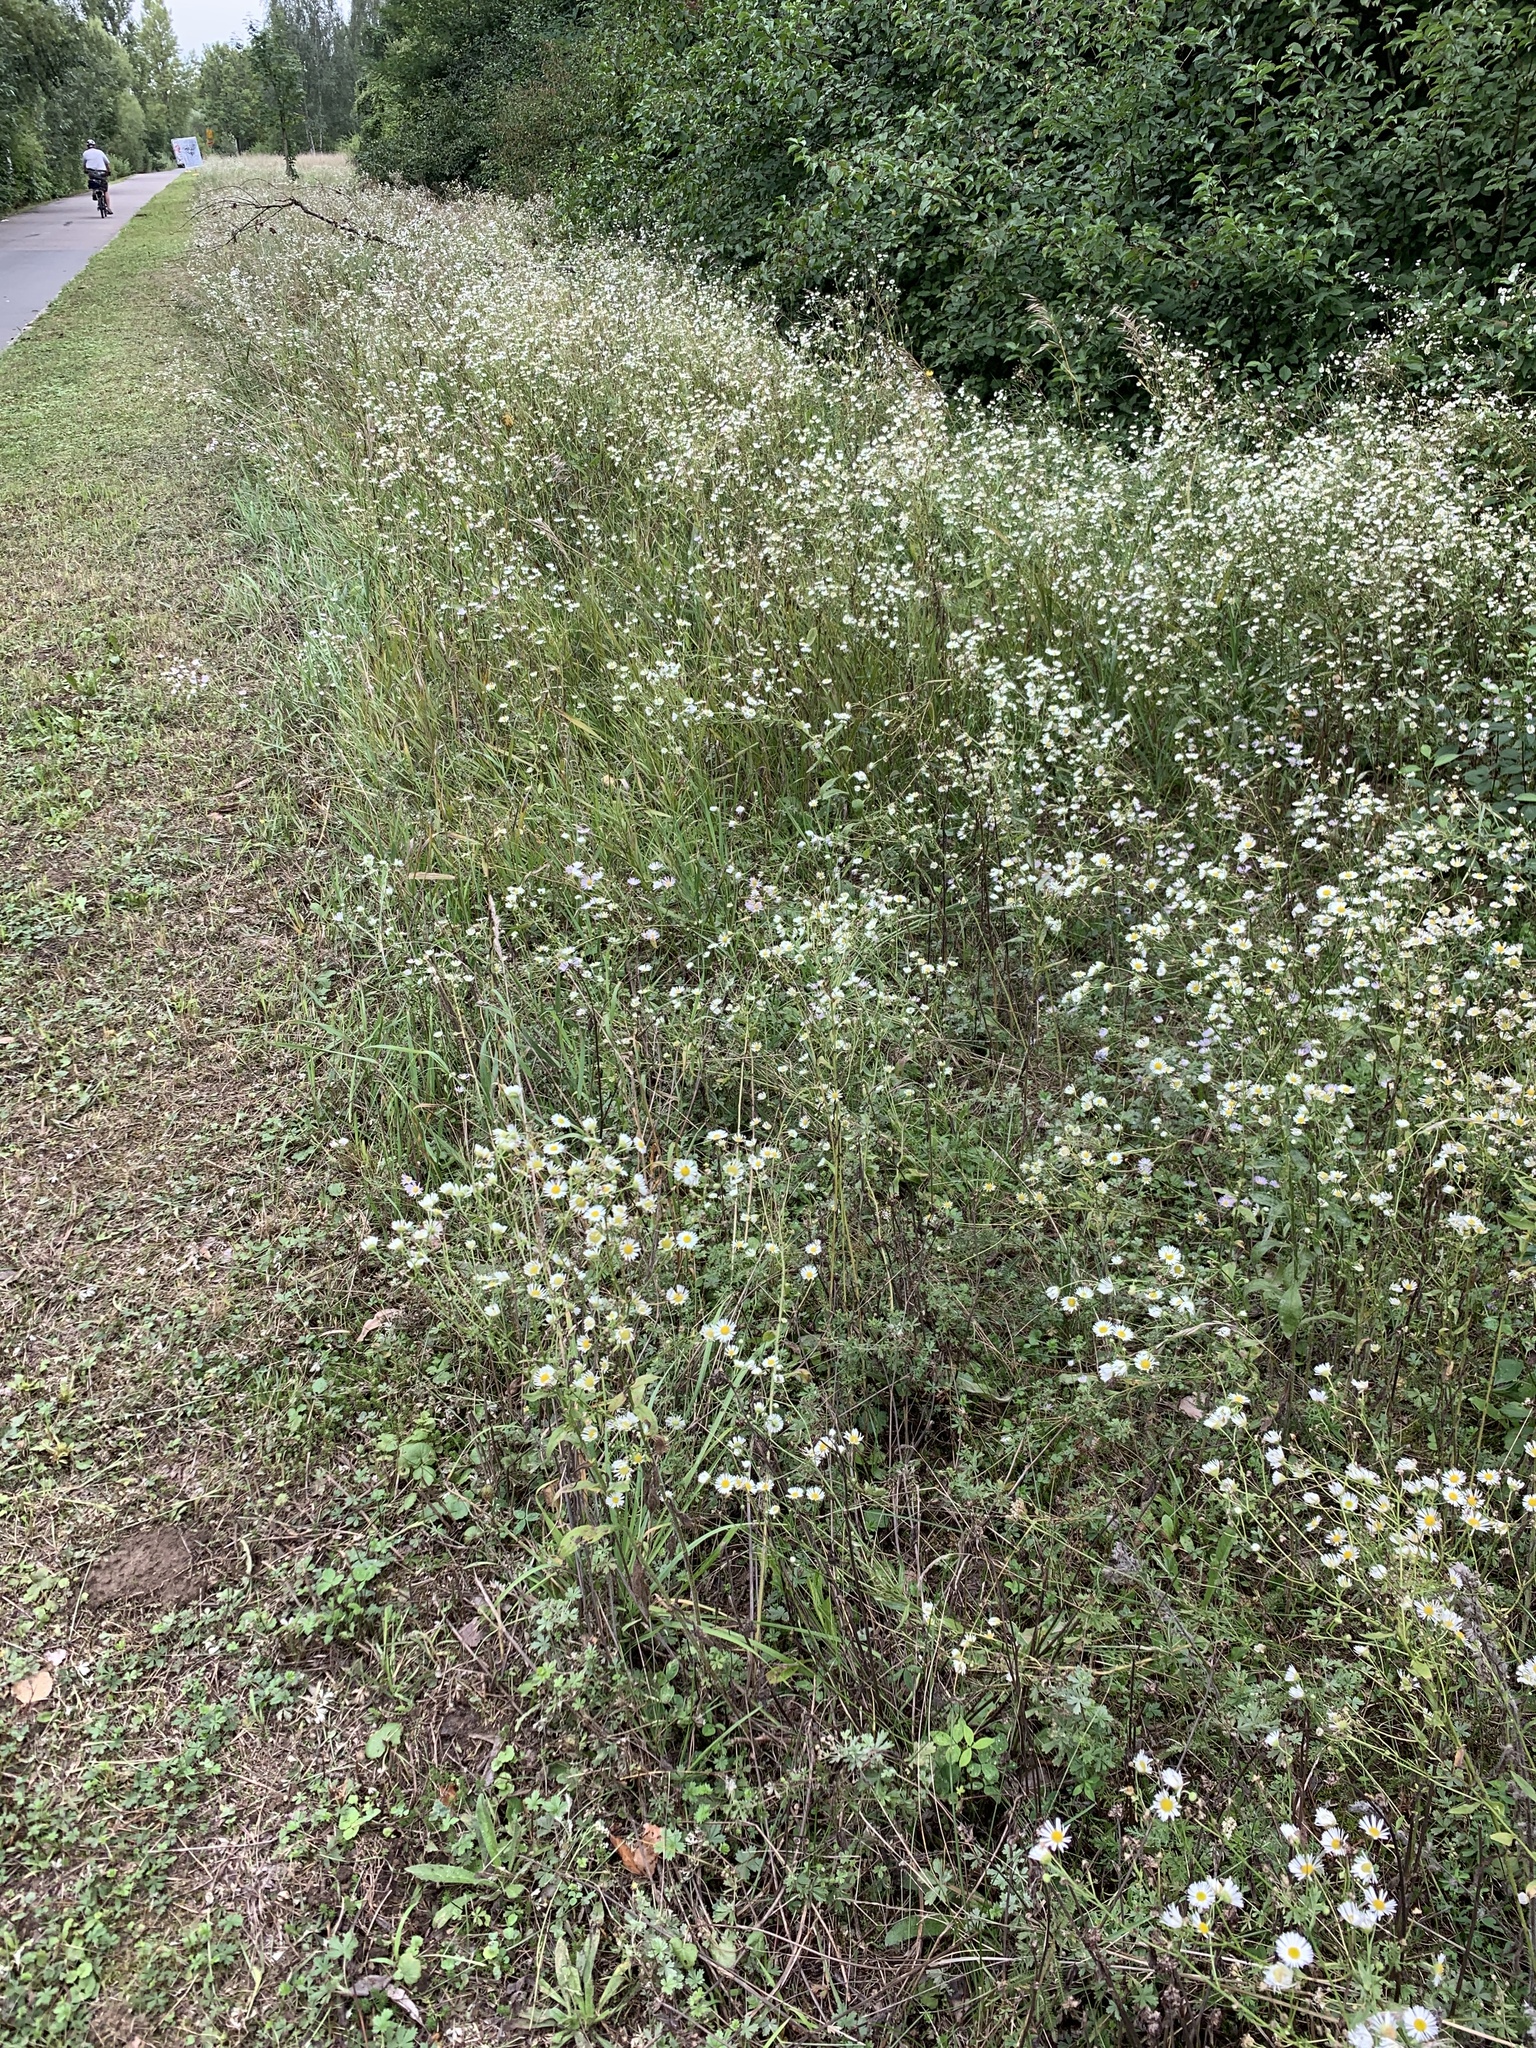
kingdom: Plantae
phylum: Tracheophyta
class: Magnoliopsida
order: Asterales
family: Asteraceae
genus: Erigeron
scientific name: Erigeron annuus
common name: Tall fleabane
